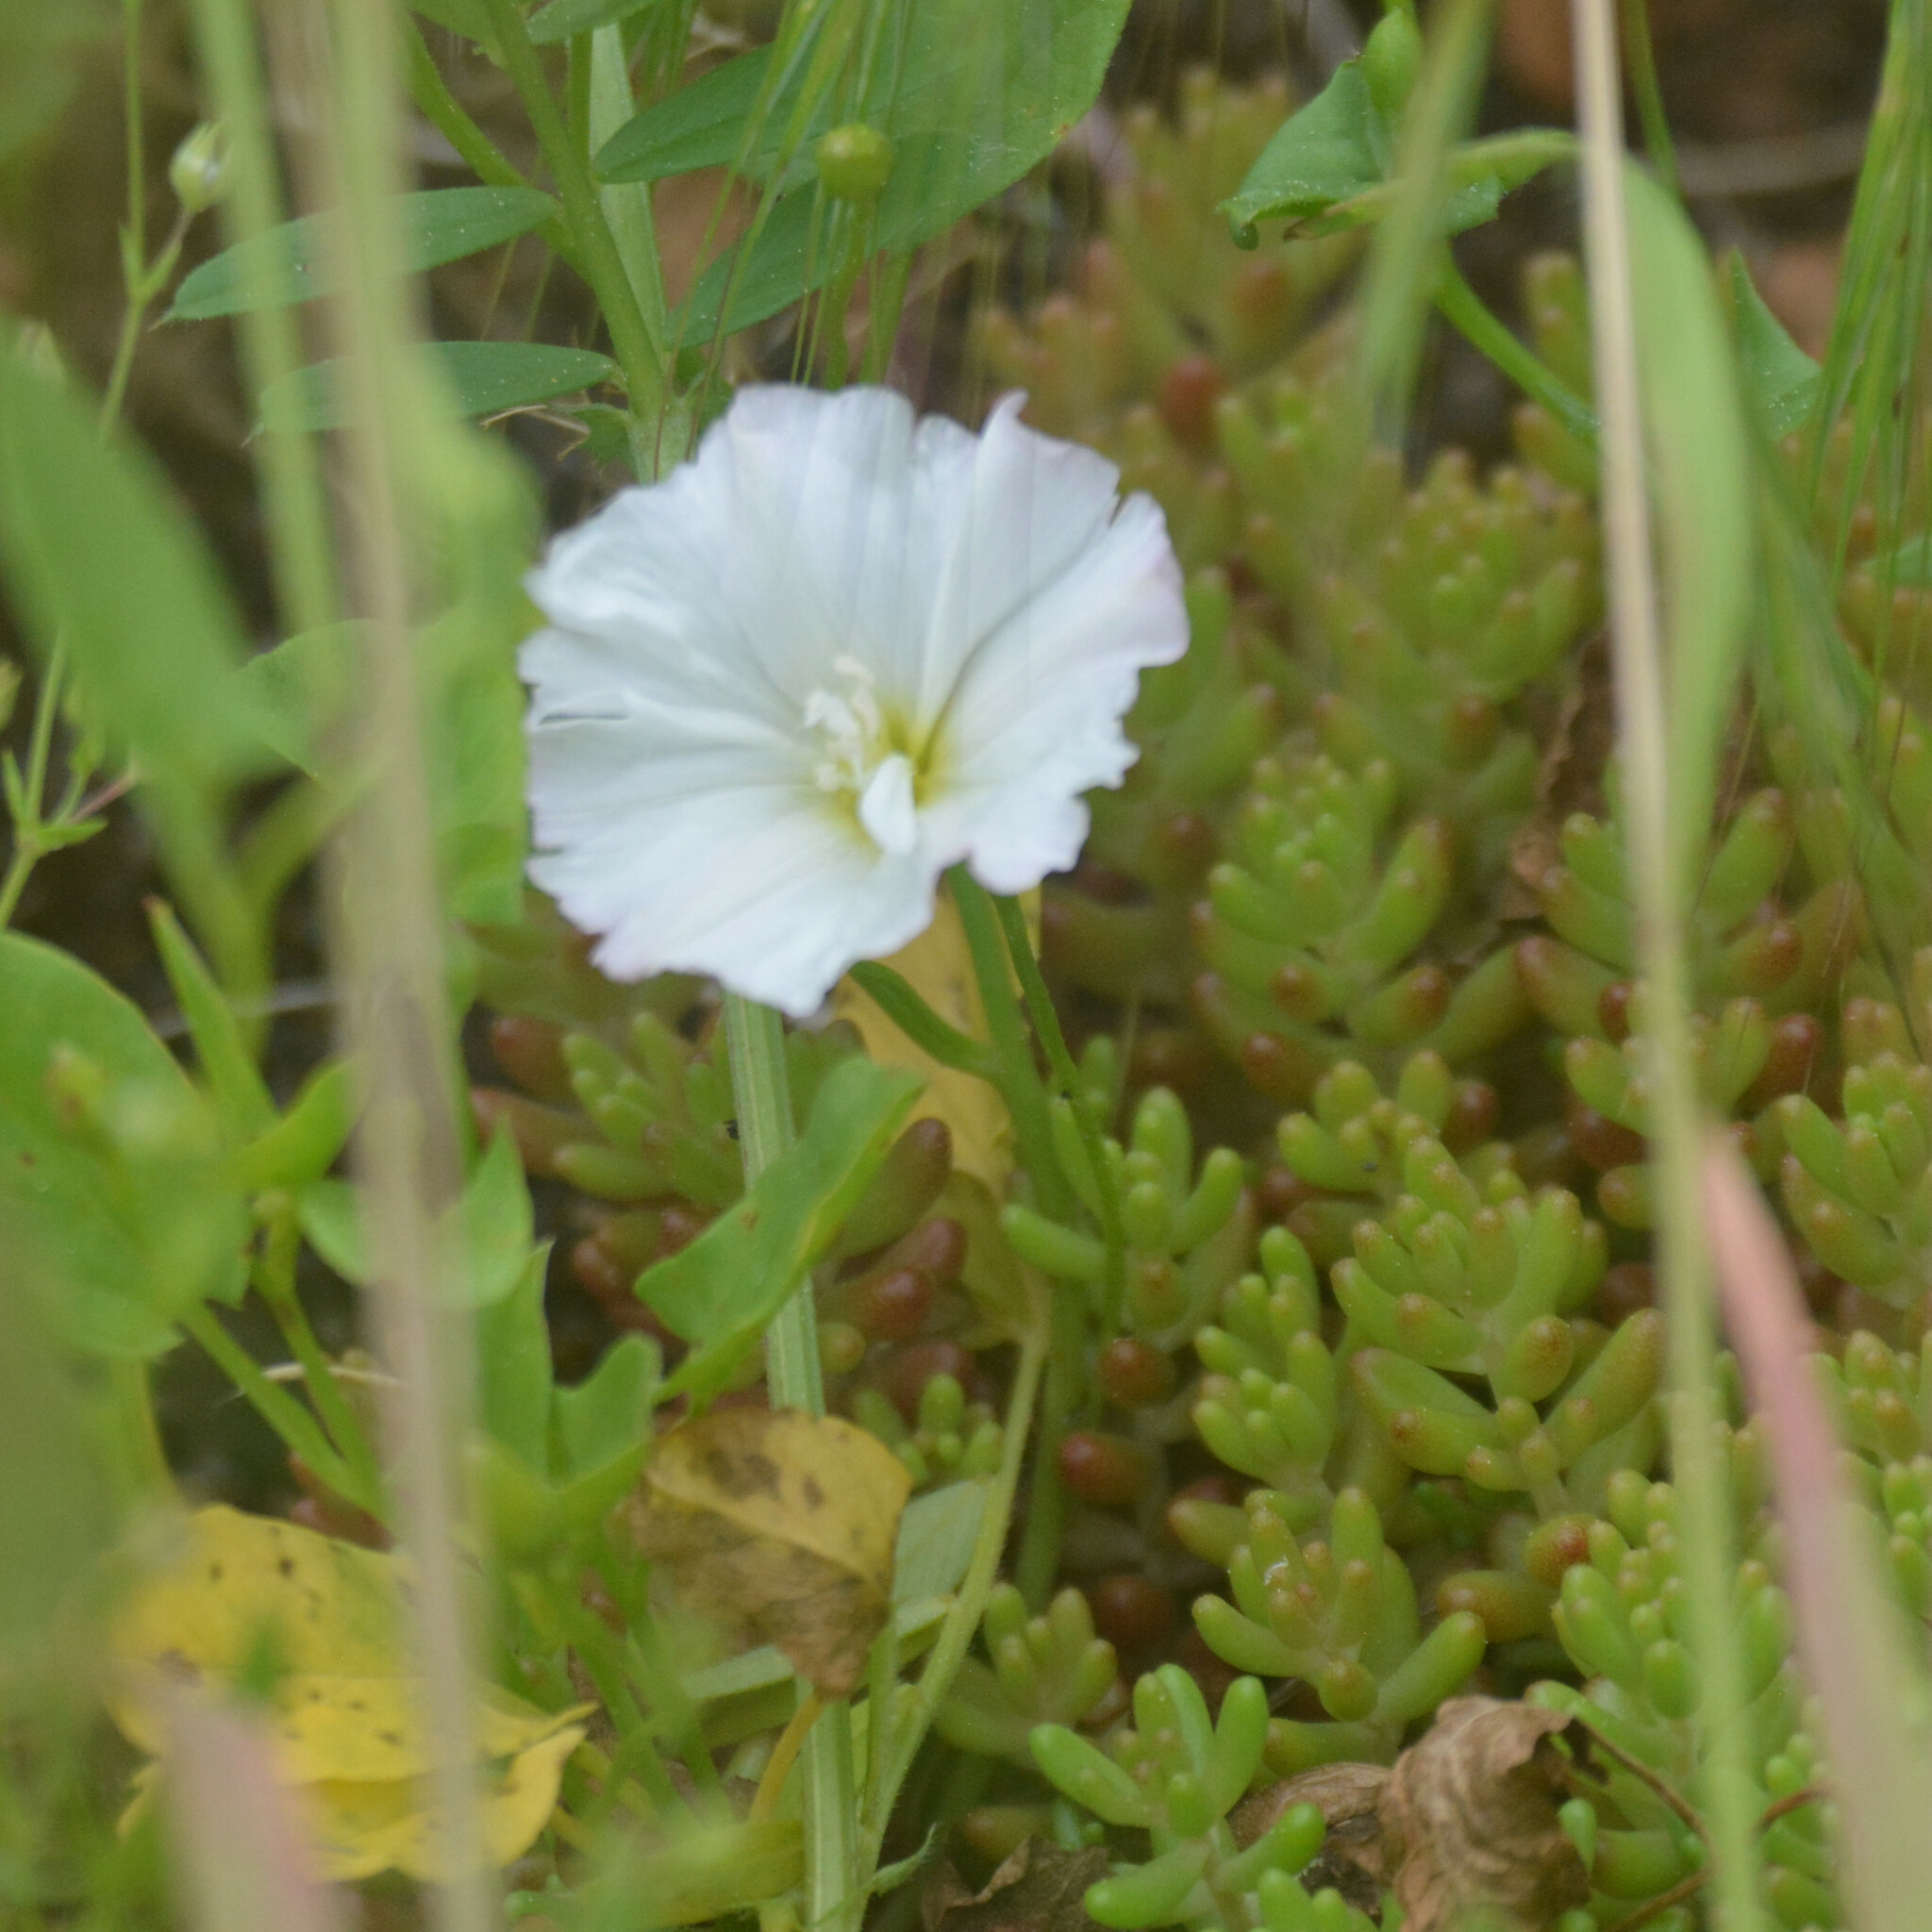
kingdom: Plantae
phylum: Tracheophyta
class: Magnoliopsida
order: Solanales
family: Convolvulaceae
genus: Convolvulus
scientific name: Convolvulus arvensis
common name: Field bindweed
